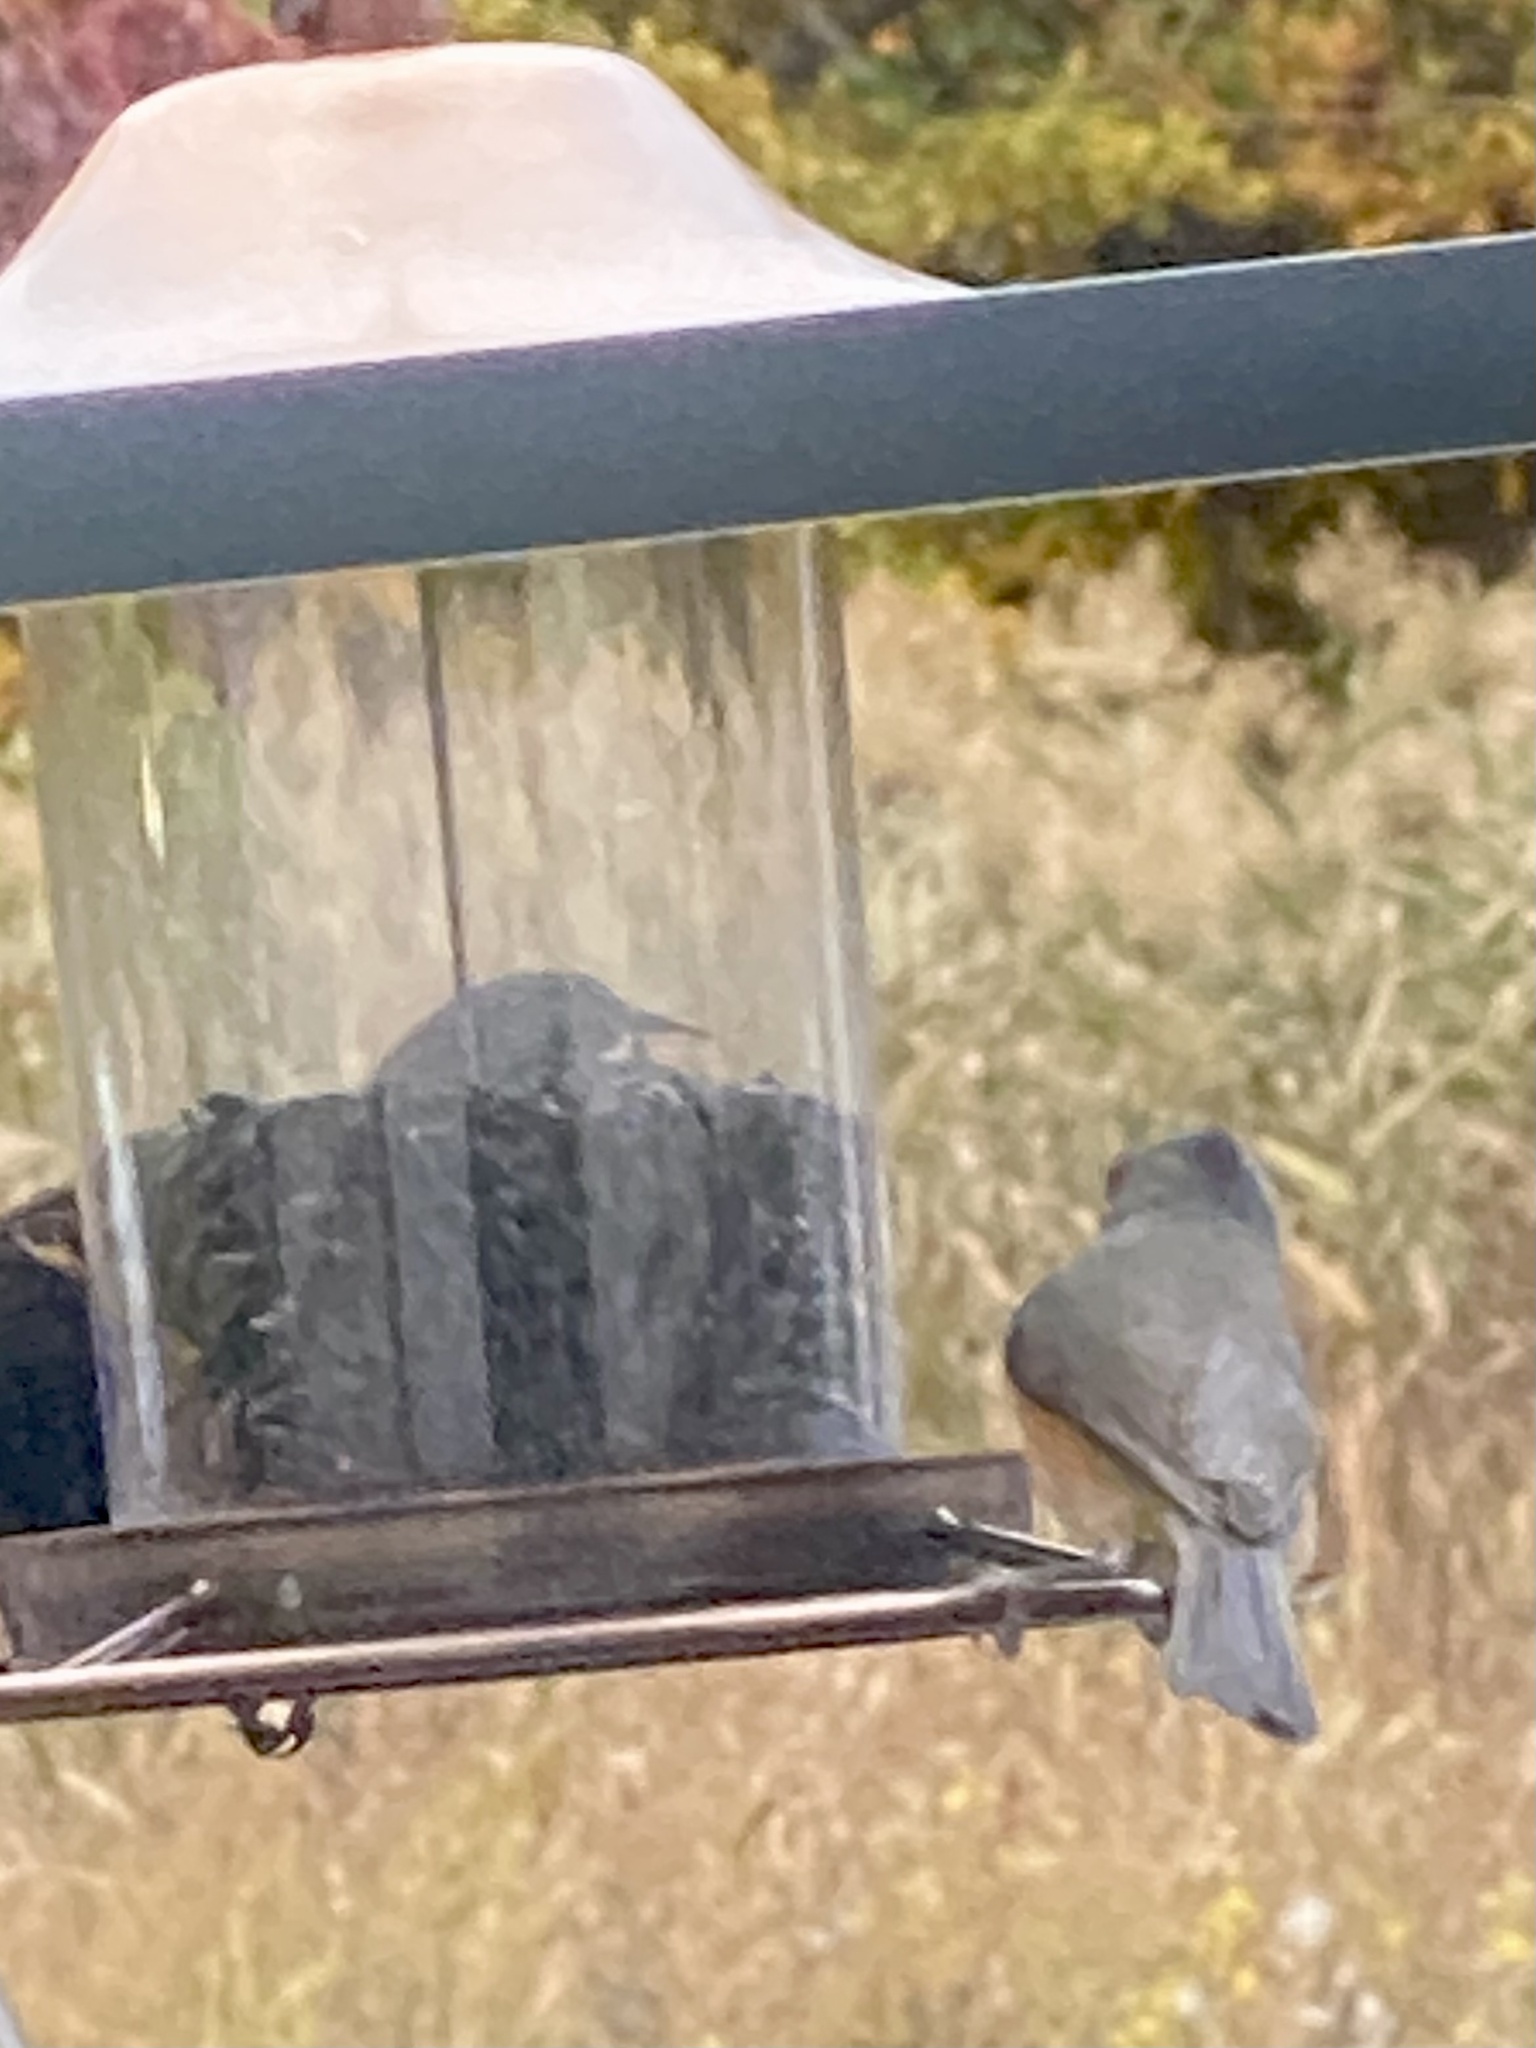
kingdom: Animalia
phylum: Chordata
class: Aves
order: Passeriformes
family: Paridae
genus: Baeolophus
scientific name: Baeolophus bicolor
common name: Tufted titmouse
